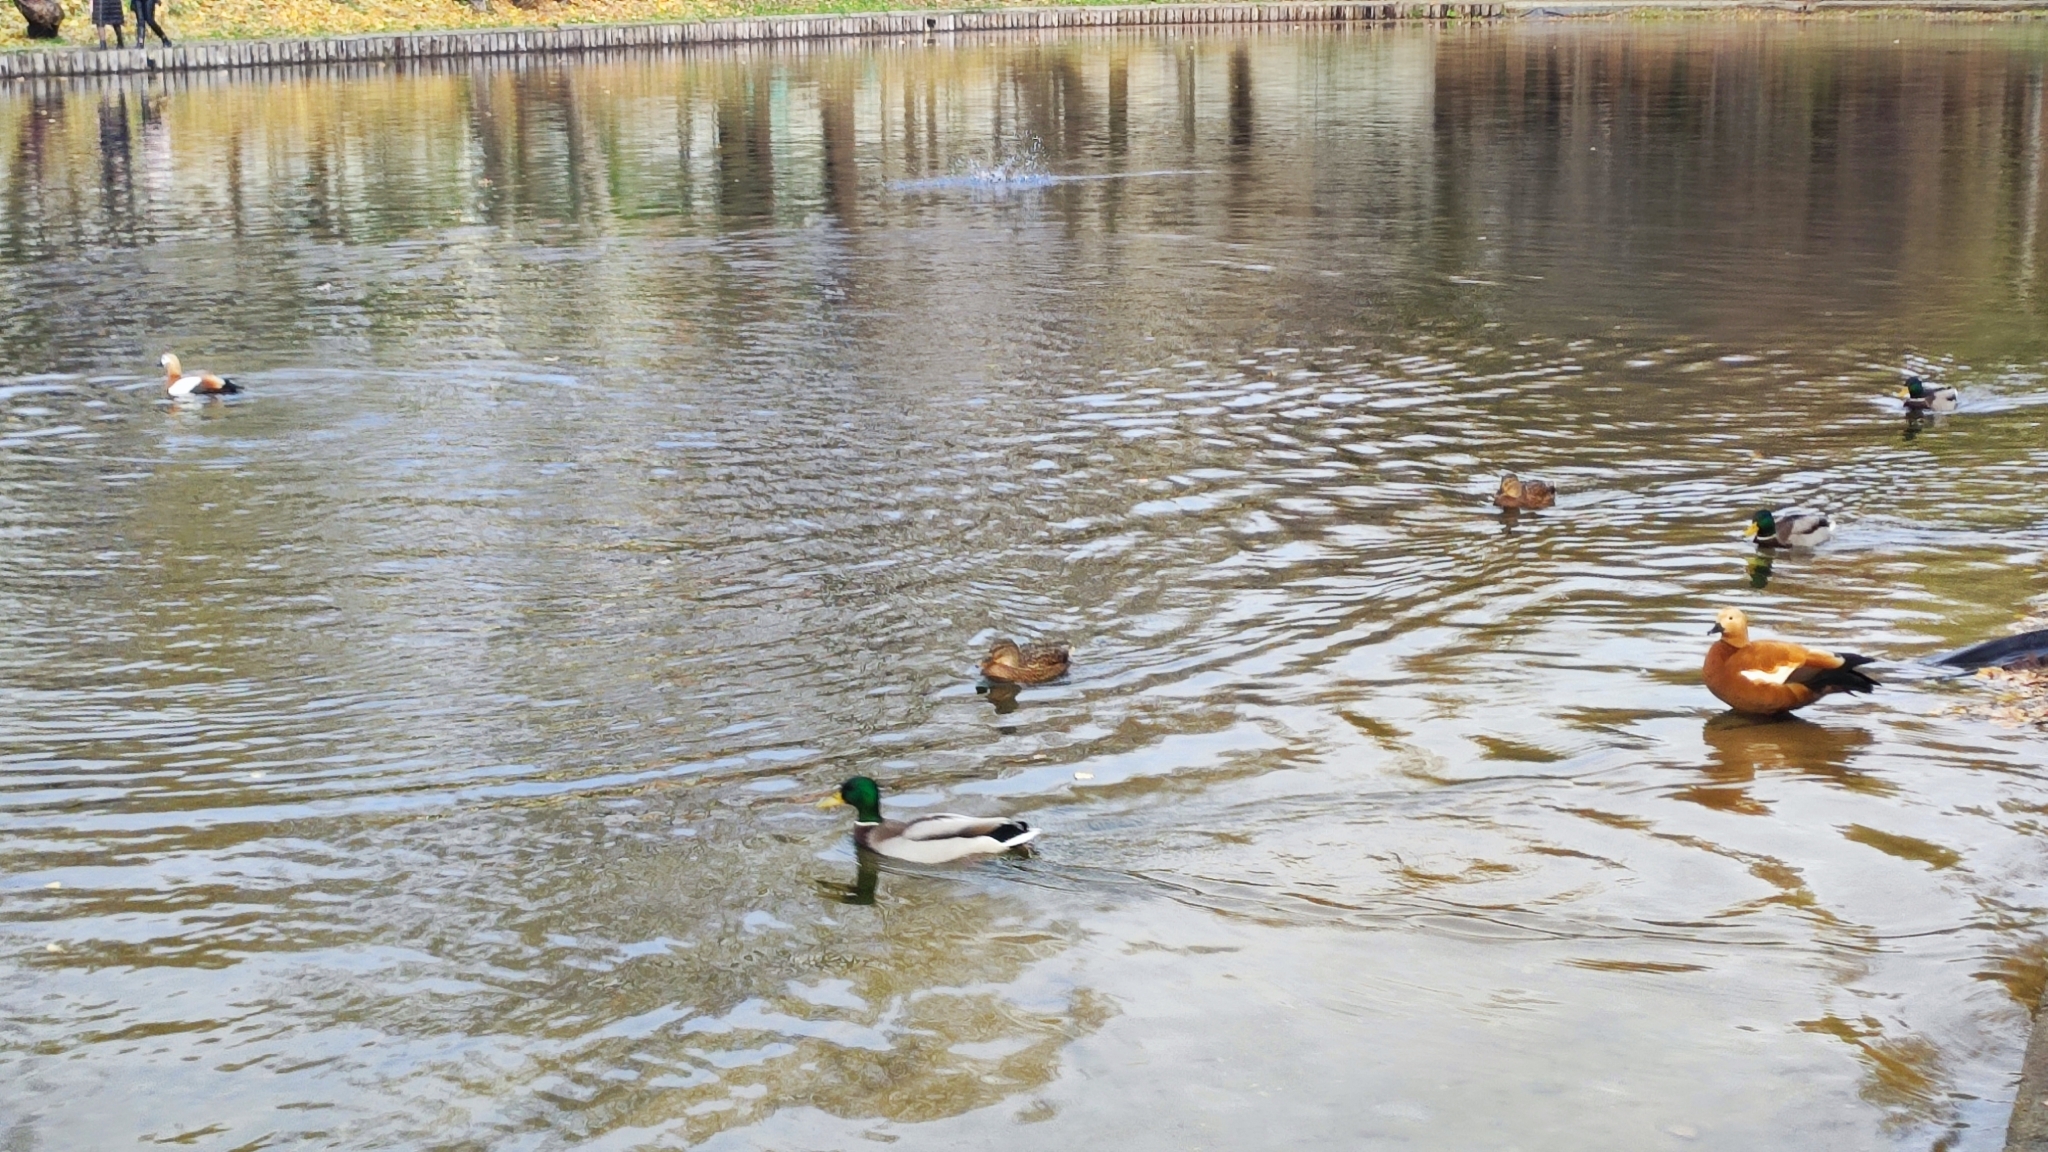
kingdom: Animalia
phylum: Chordata
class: Aves
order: Anseriformes
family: Anatidae
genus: Tadorna
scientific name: Tadorna ferruginea
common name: Ruddy shelduck
